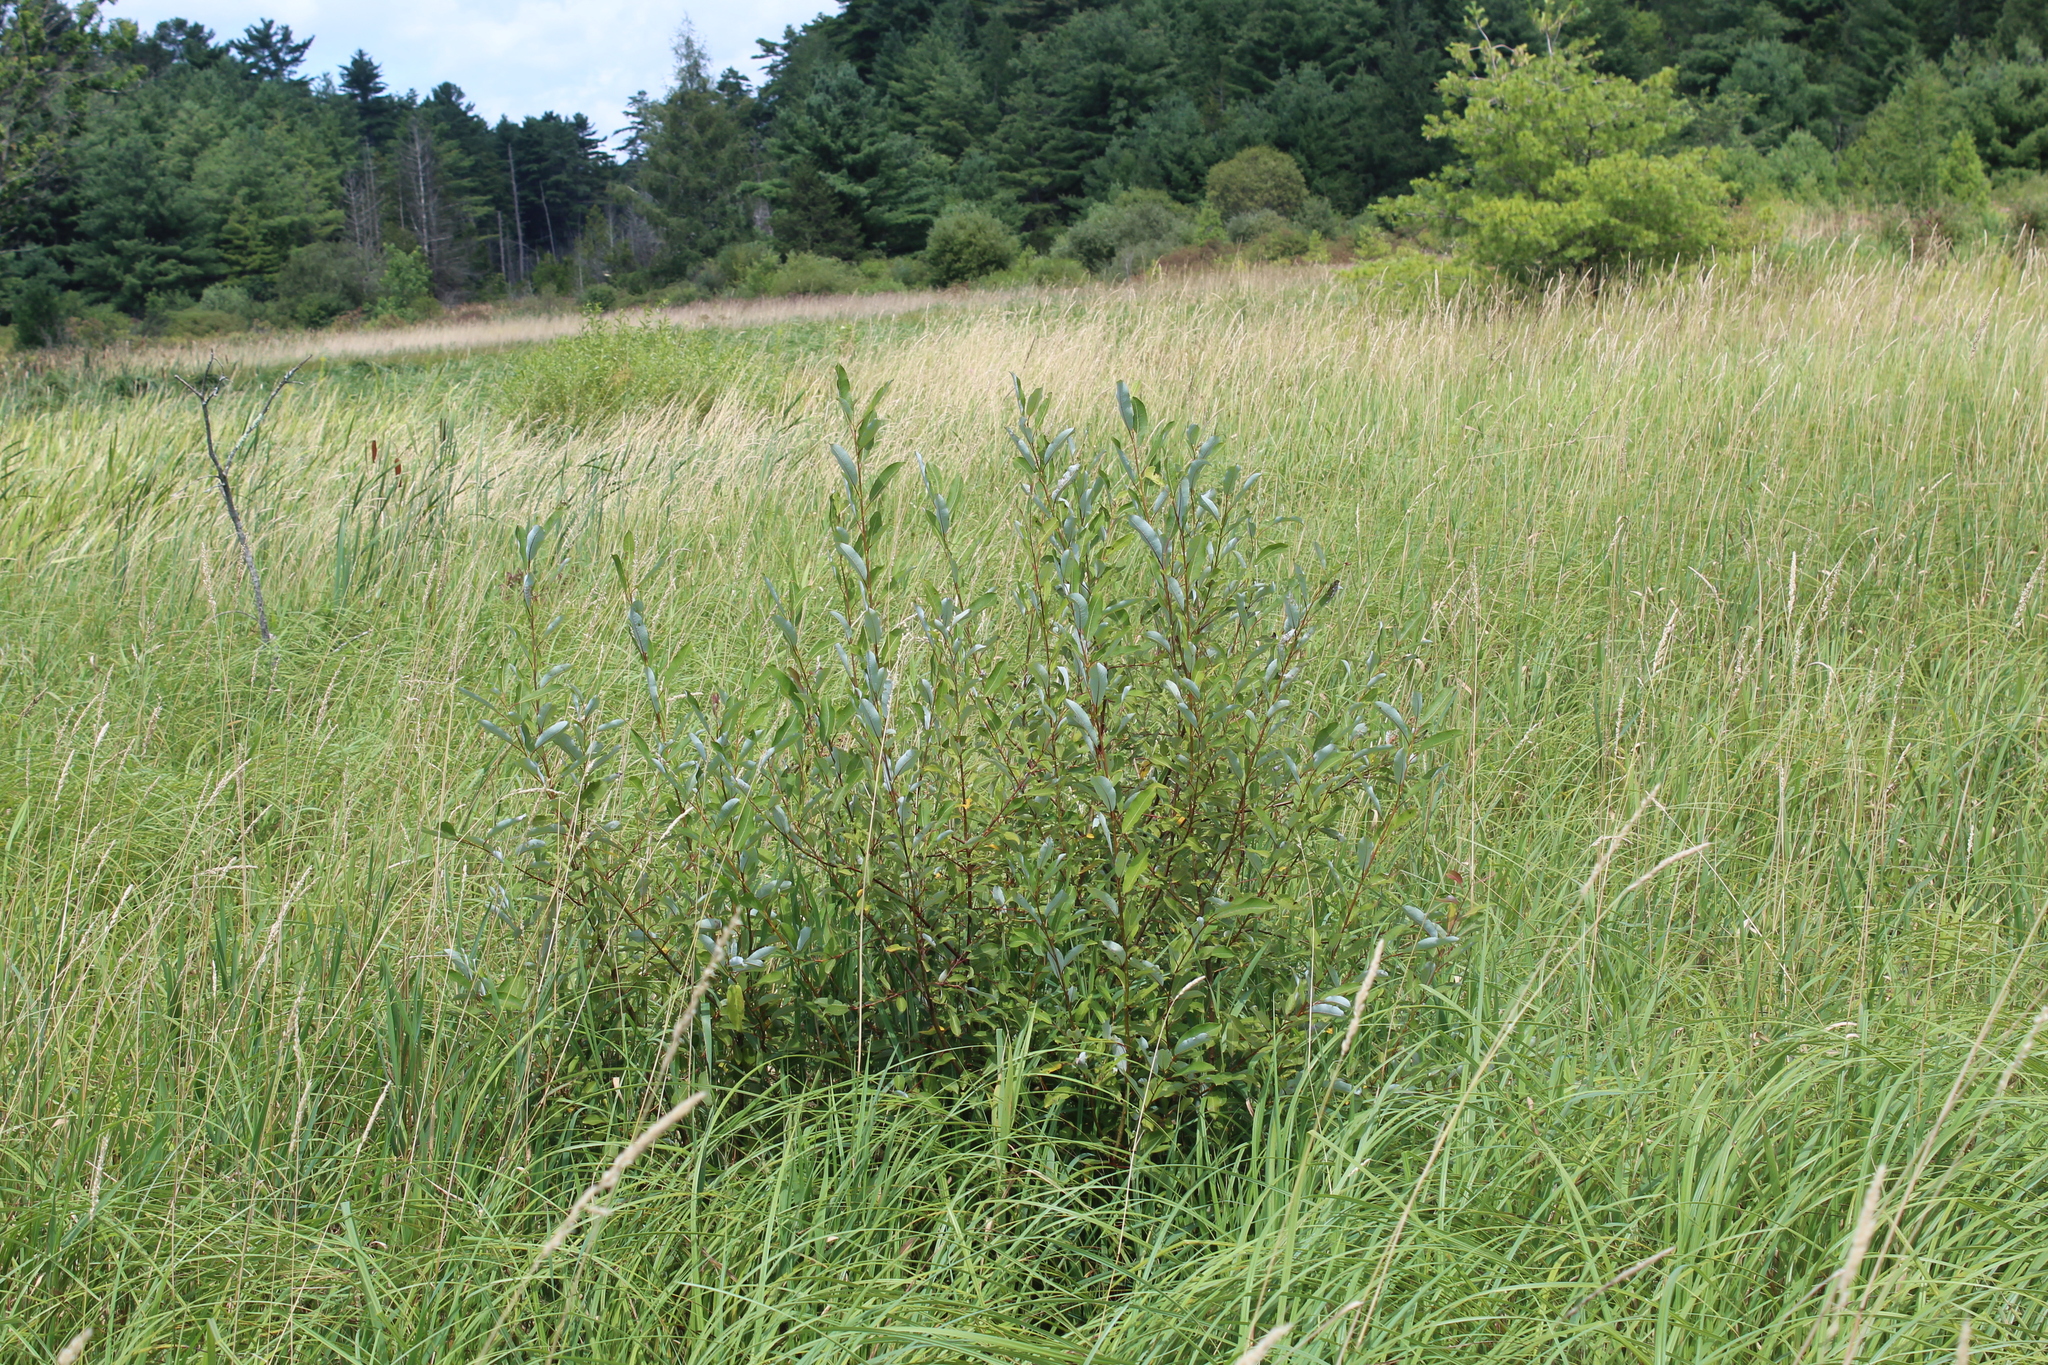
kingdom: Plantae
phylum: Tracheophyta
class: Magnoliopsida
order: Rosales
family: Elaeagnaceae
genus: Elaeagnus
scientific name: Elaeagnus umbellata
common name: Autumn olive
